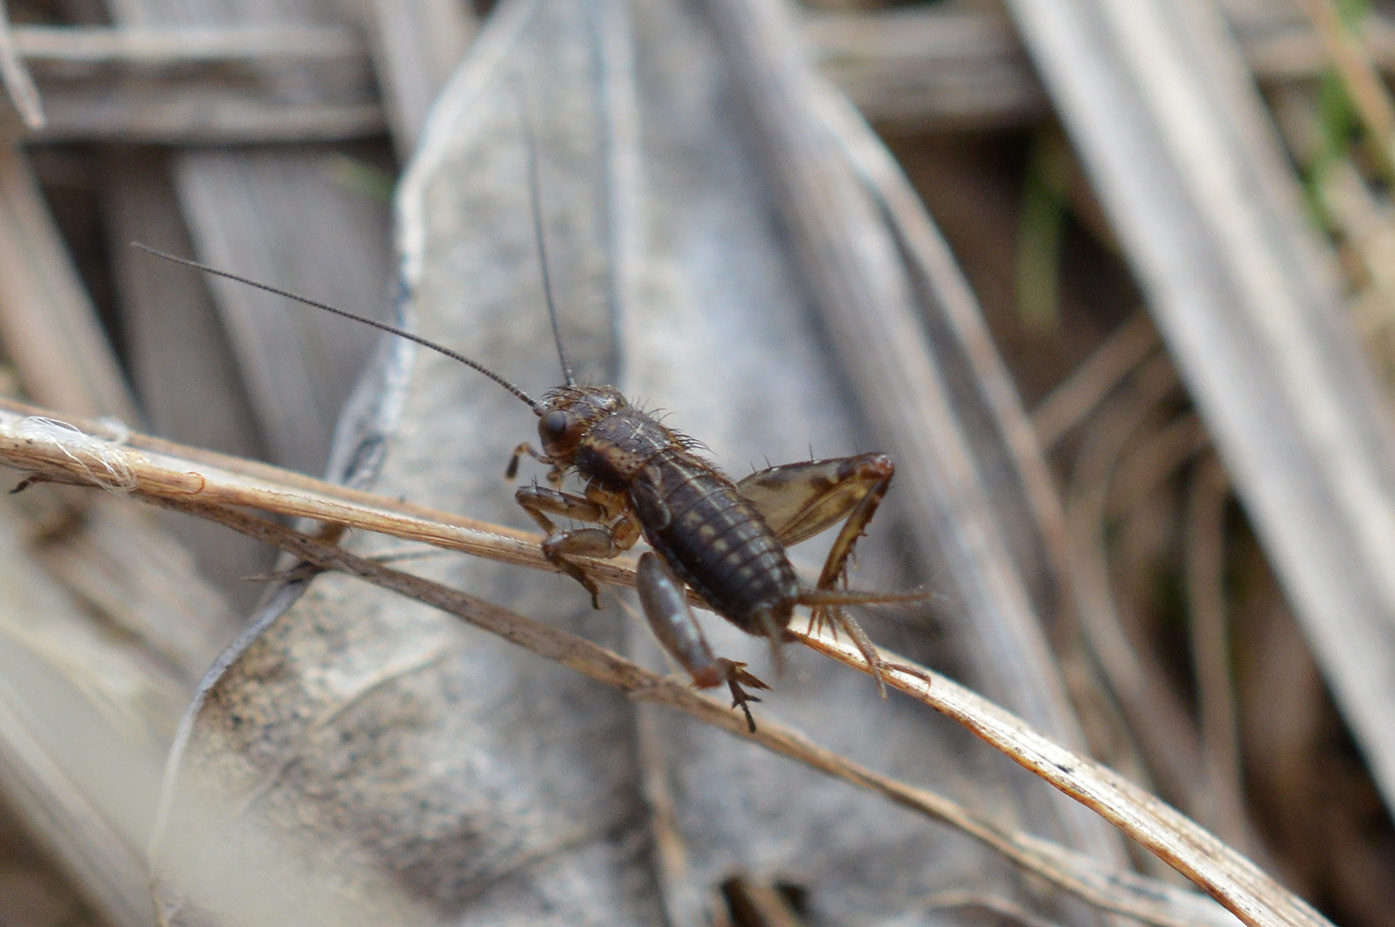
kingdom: Animalia
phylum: Arthropoda
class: Insecta
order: Orthoptera
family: Trigonidiidae
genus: Pteronemobius
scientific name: Pteronemobius heydenii
